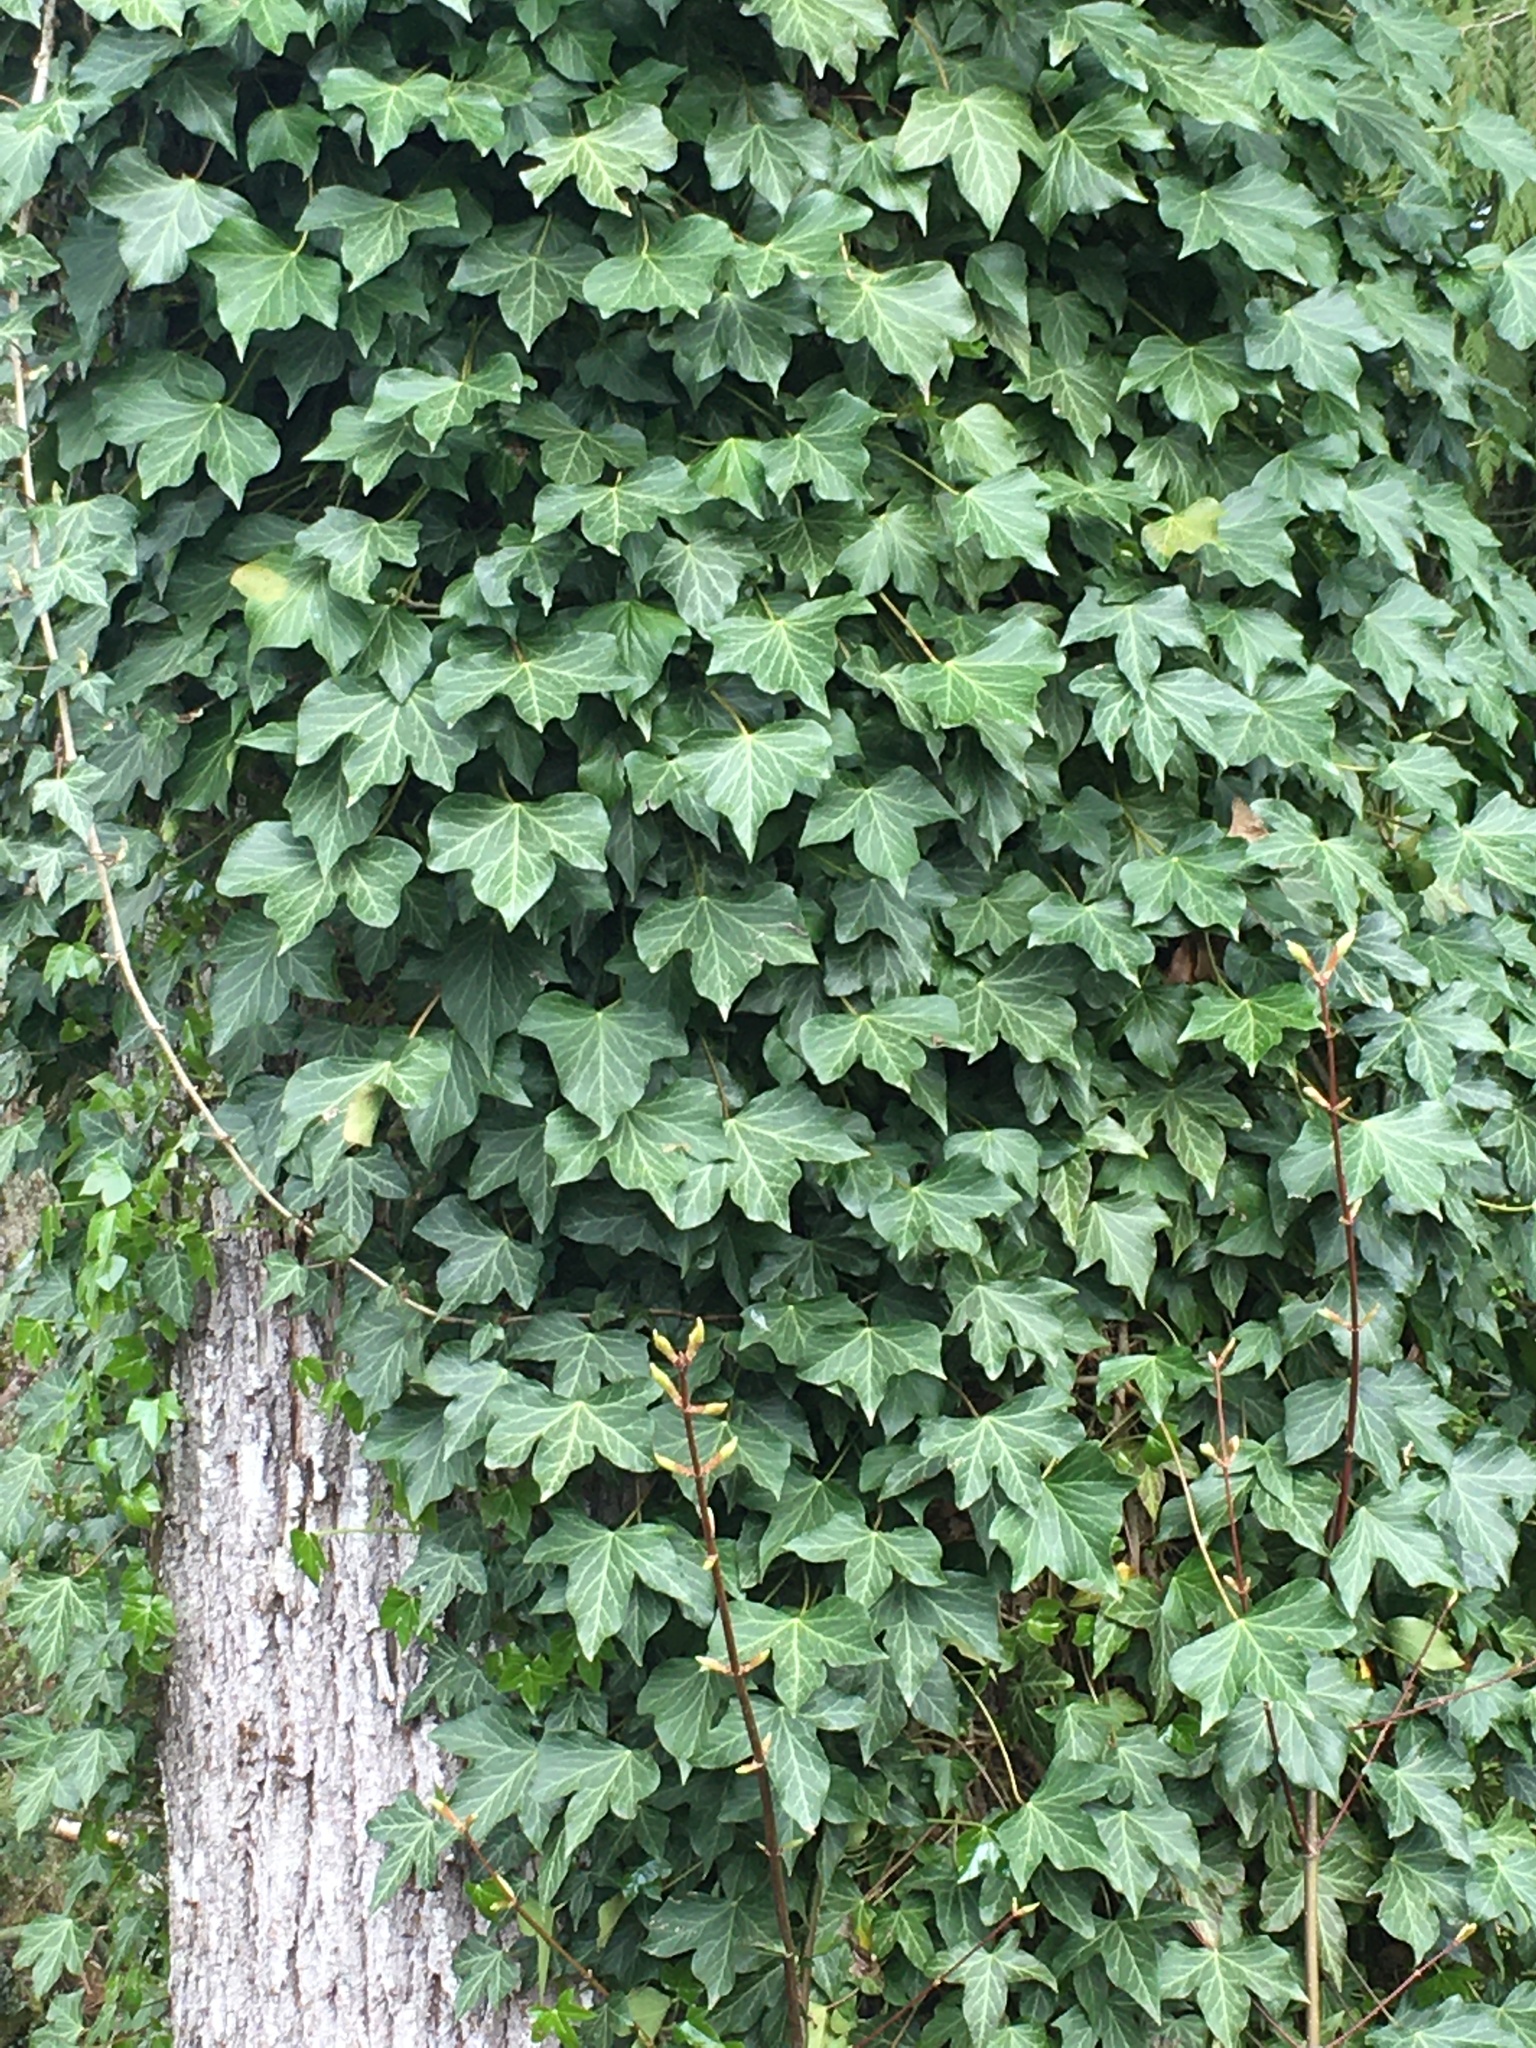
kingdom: Plantae
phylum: Tracheophyta
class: Magnoliopsida
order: Apiales
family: Araliaceae
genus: Hedera
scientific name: Hedera helix
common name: Ivy
